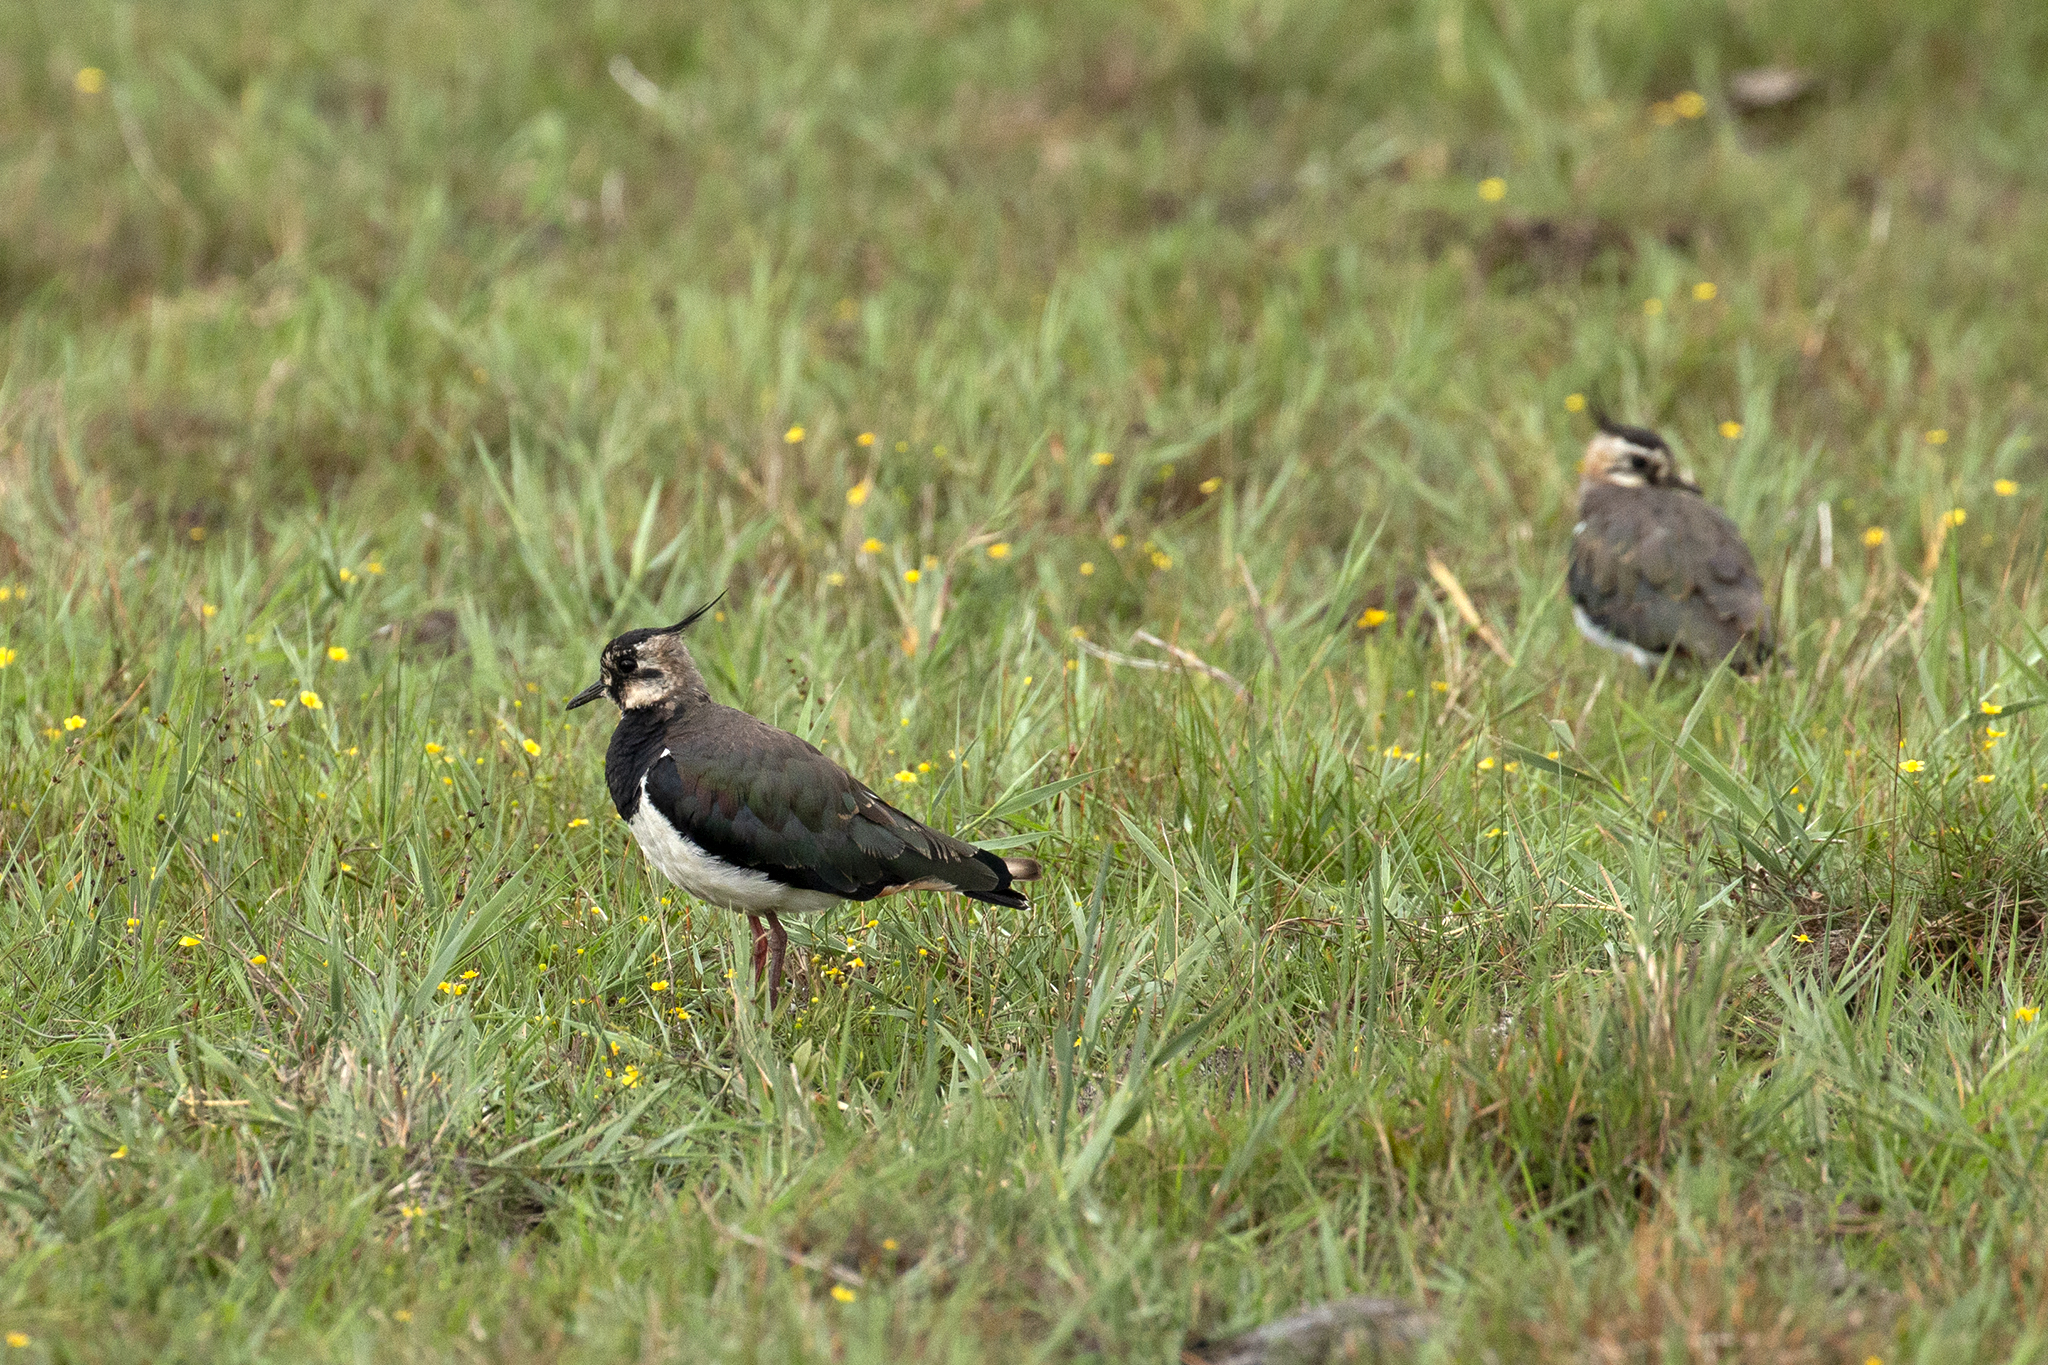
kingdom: Animalia
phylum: Chordata
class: Aves
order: Charadriiformes
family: Charadriidae
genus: Vanellus
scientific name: Vanellus vanellus
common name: Northern lapwing
